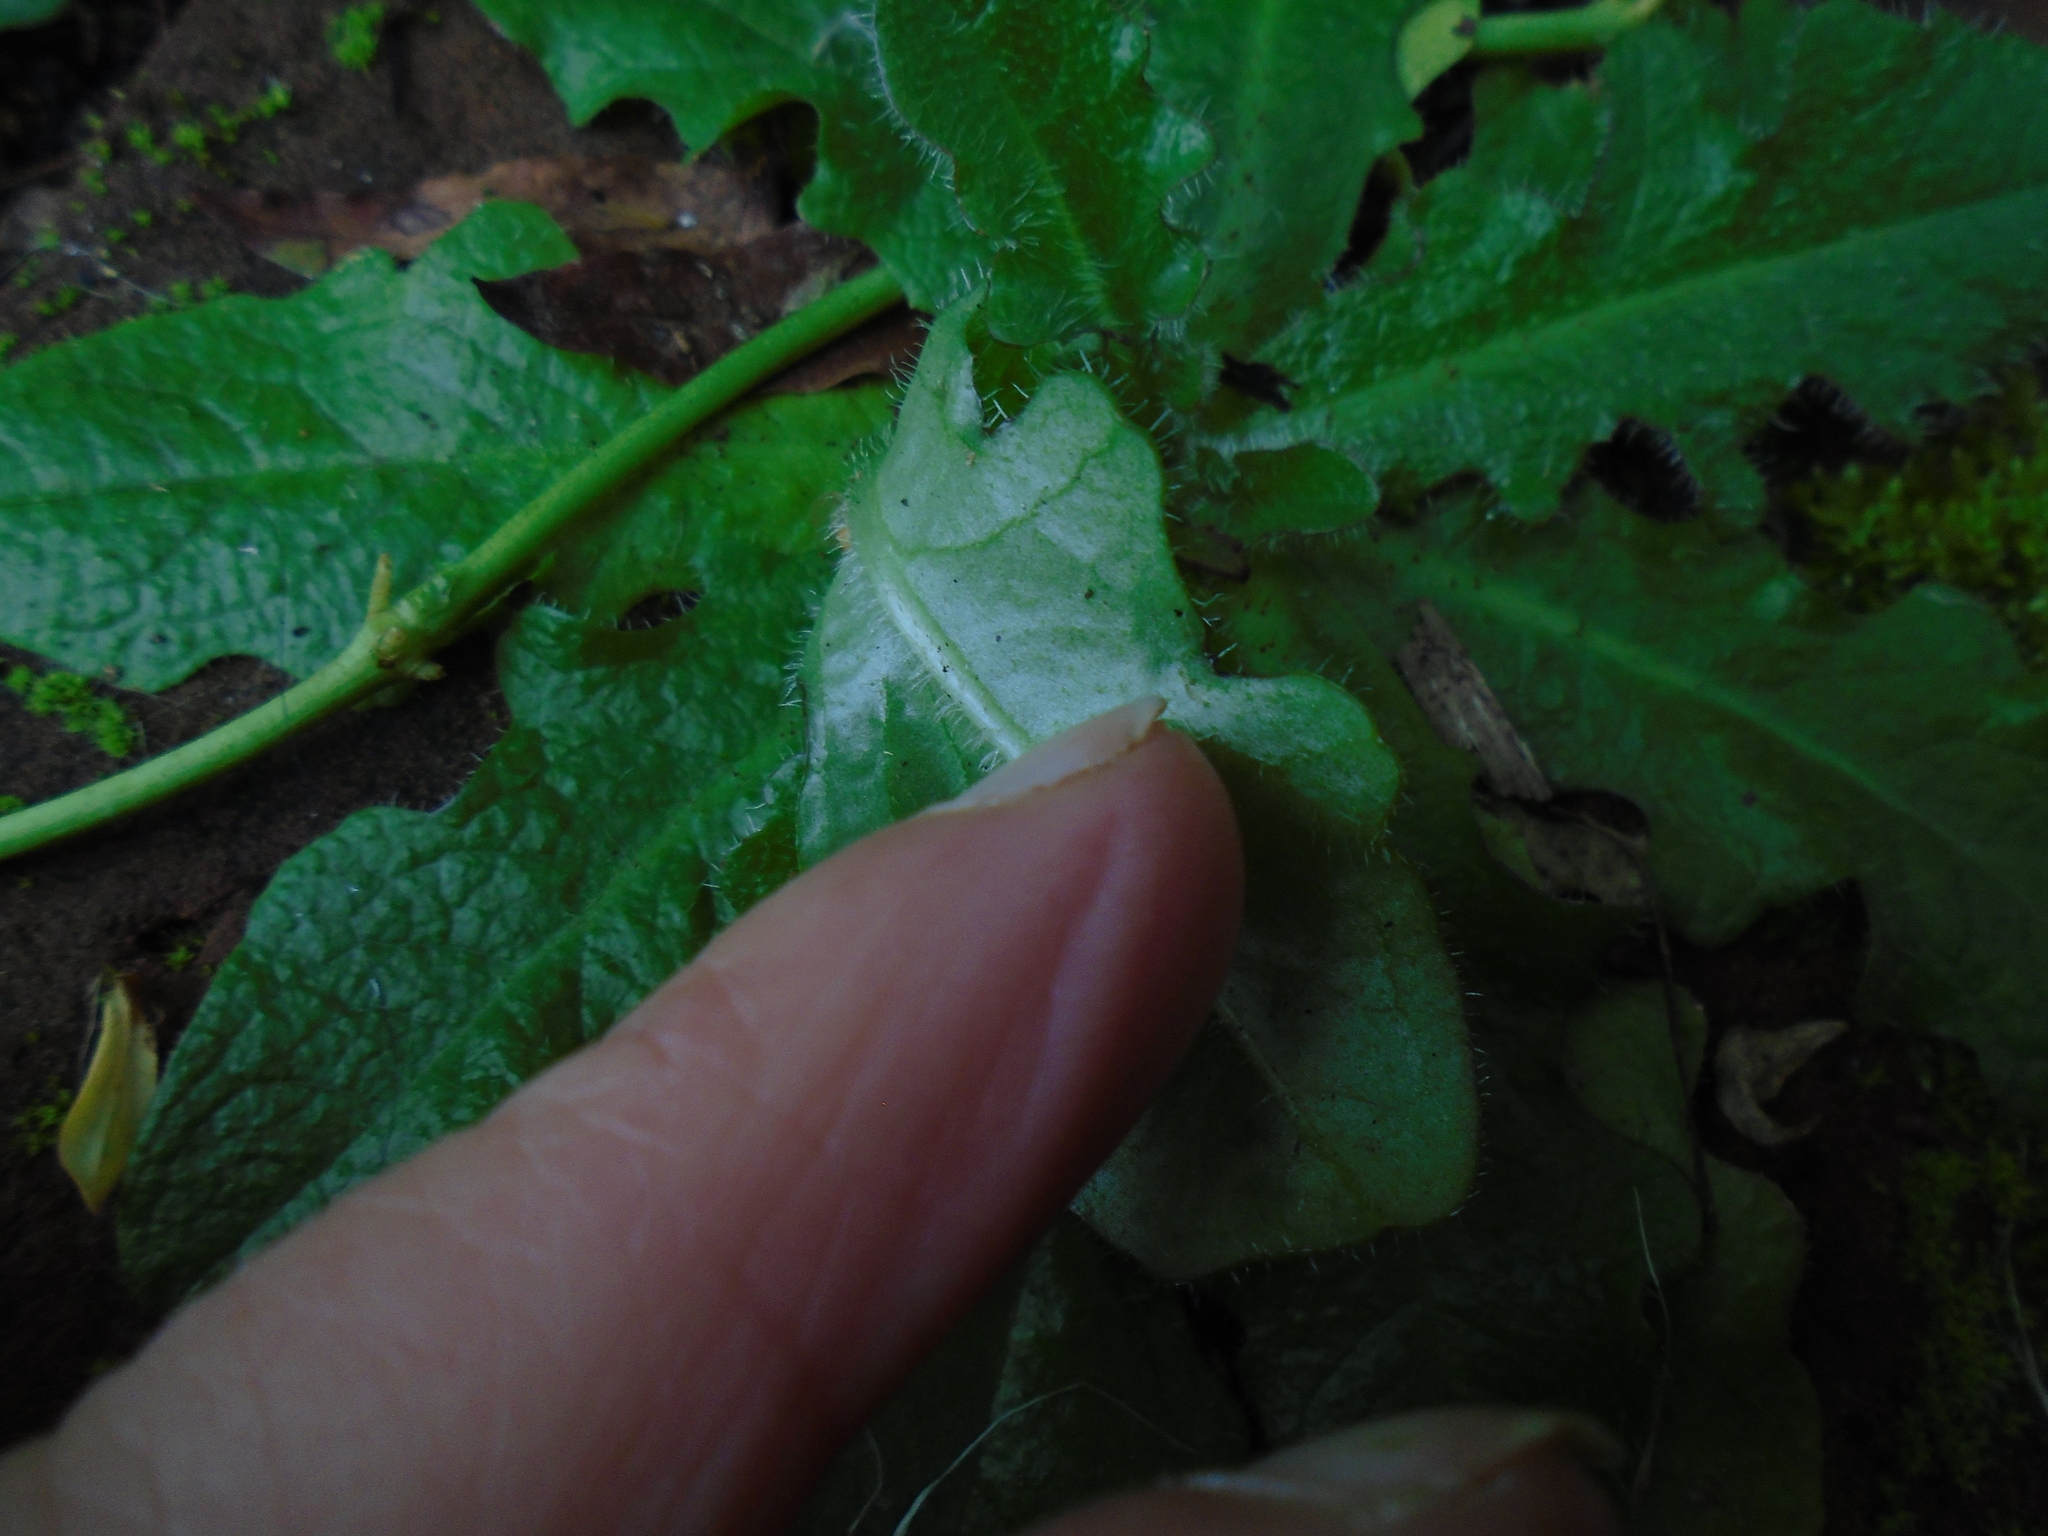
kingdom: Plantae
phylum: Tracheophyta
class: Magnoliopsida
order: Asterales
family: Asteraceae
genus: Hypochaeris
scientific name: Hypochaeris radicata
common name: Flatweed
